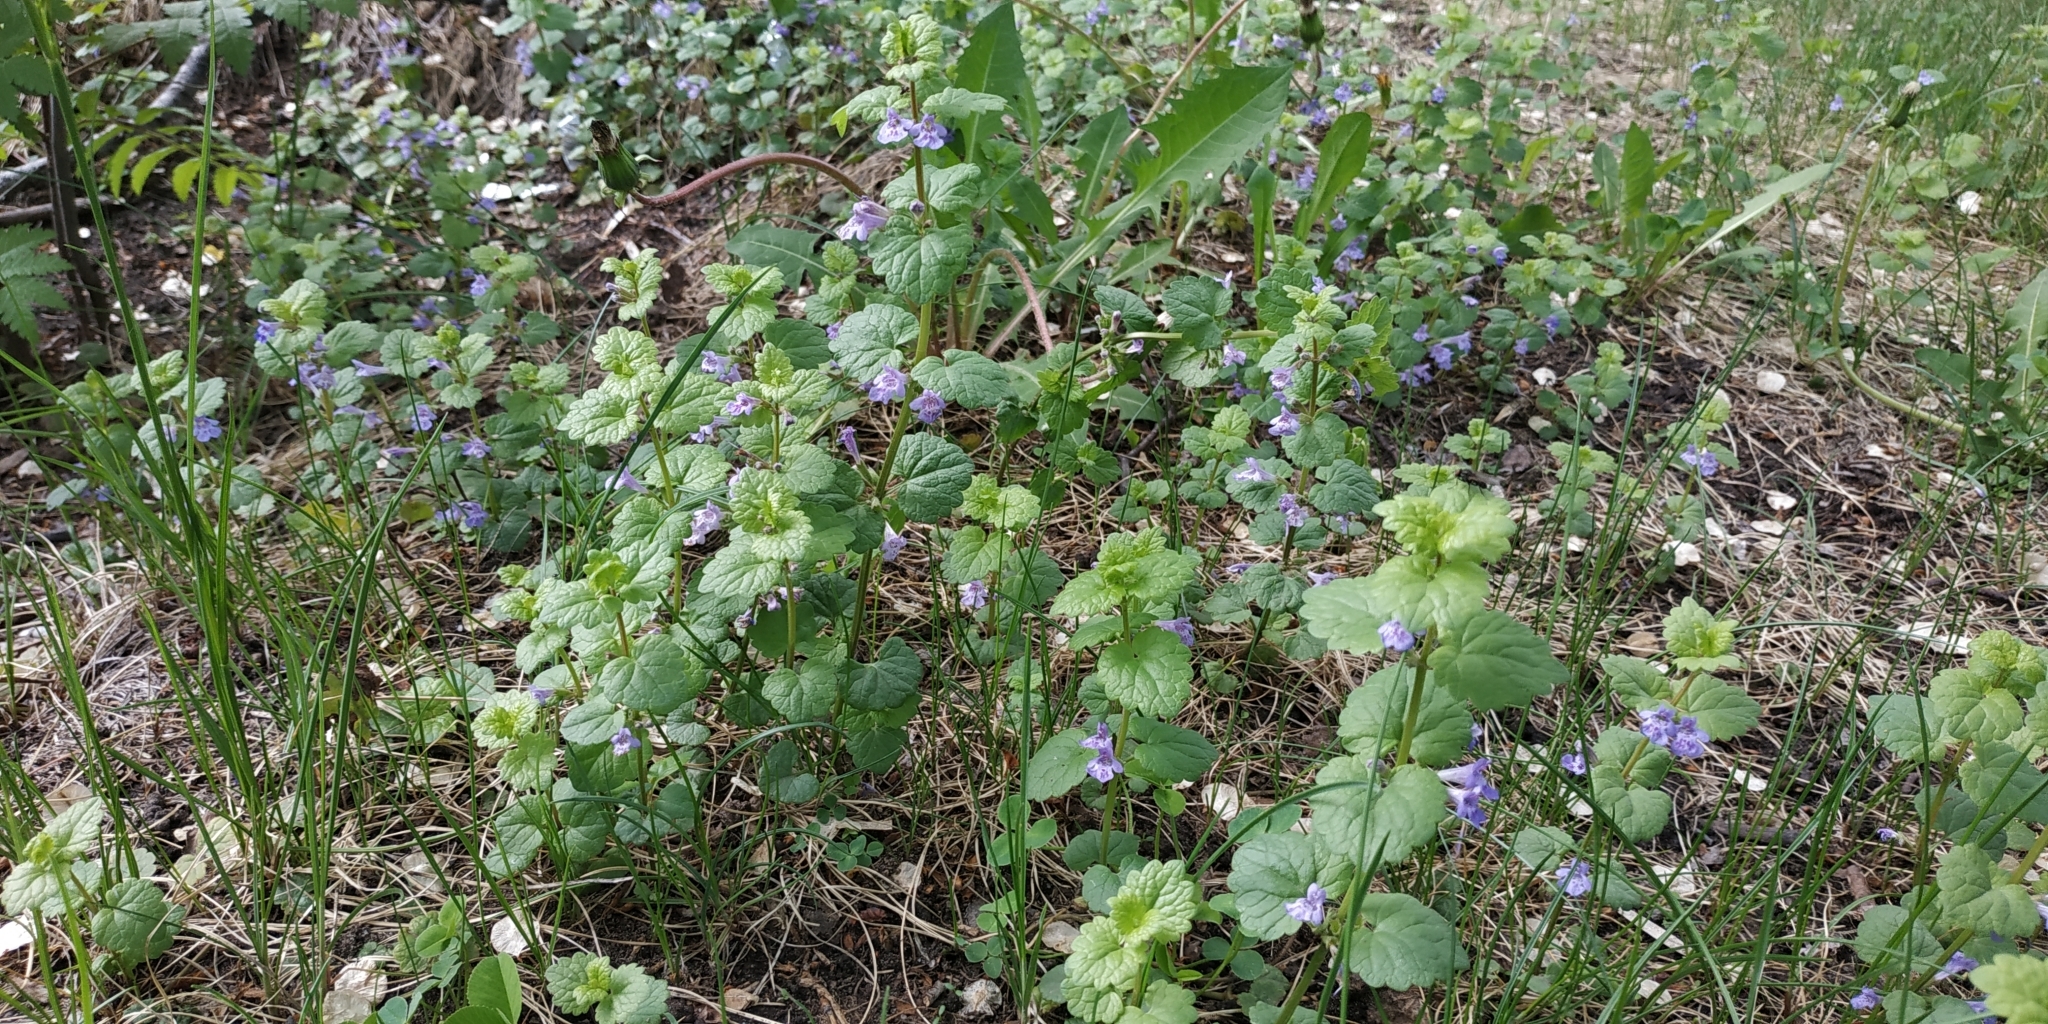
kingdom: Plantae
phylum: Tracheophyta
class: Magnoliopsida
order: Lamiales
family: Lamiaceae
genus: Glechoma
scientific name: Glechoma hederacea
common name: Ground ivy
